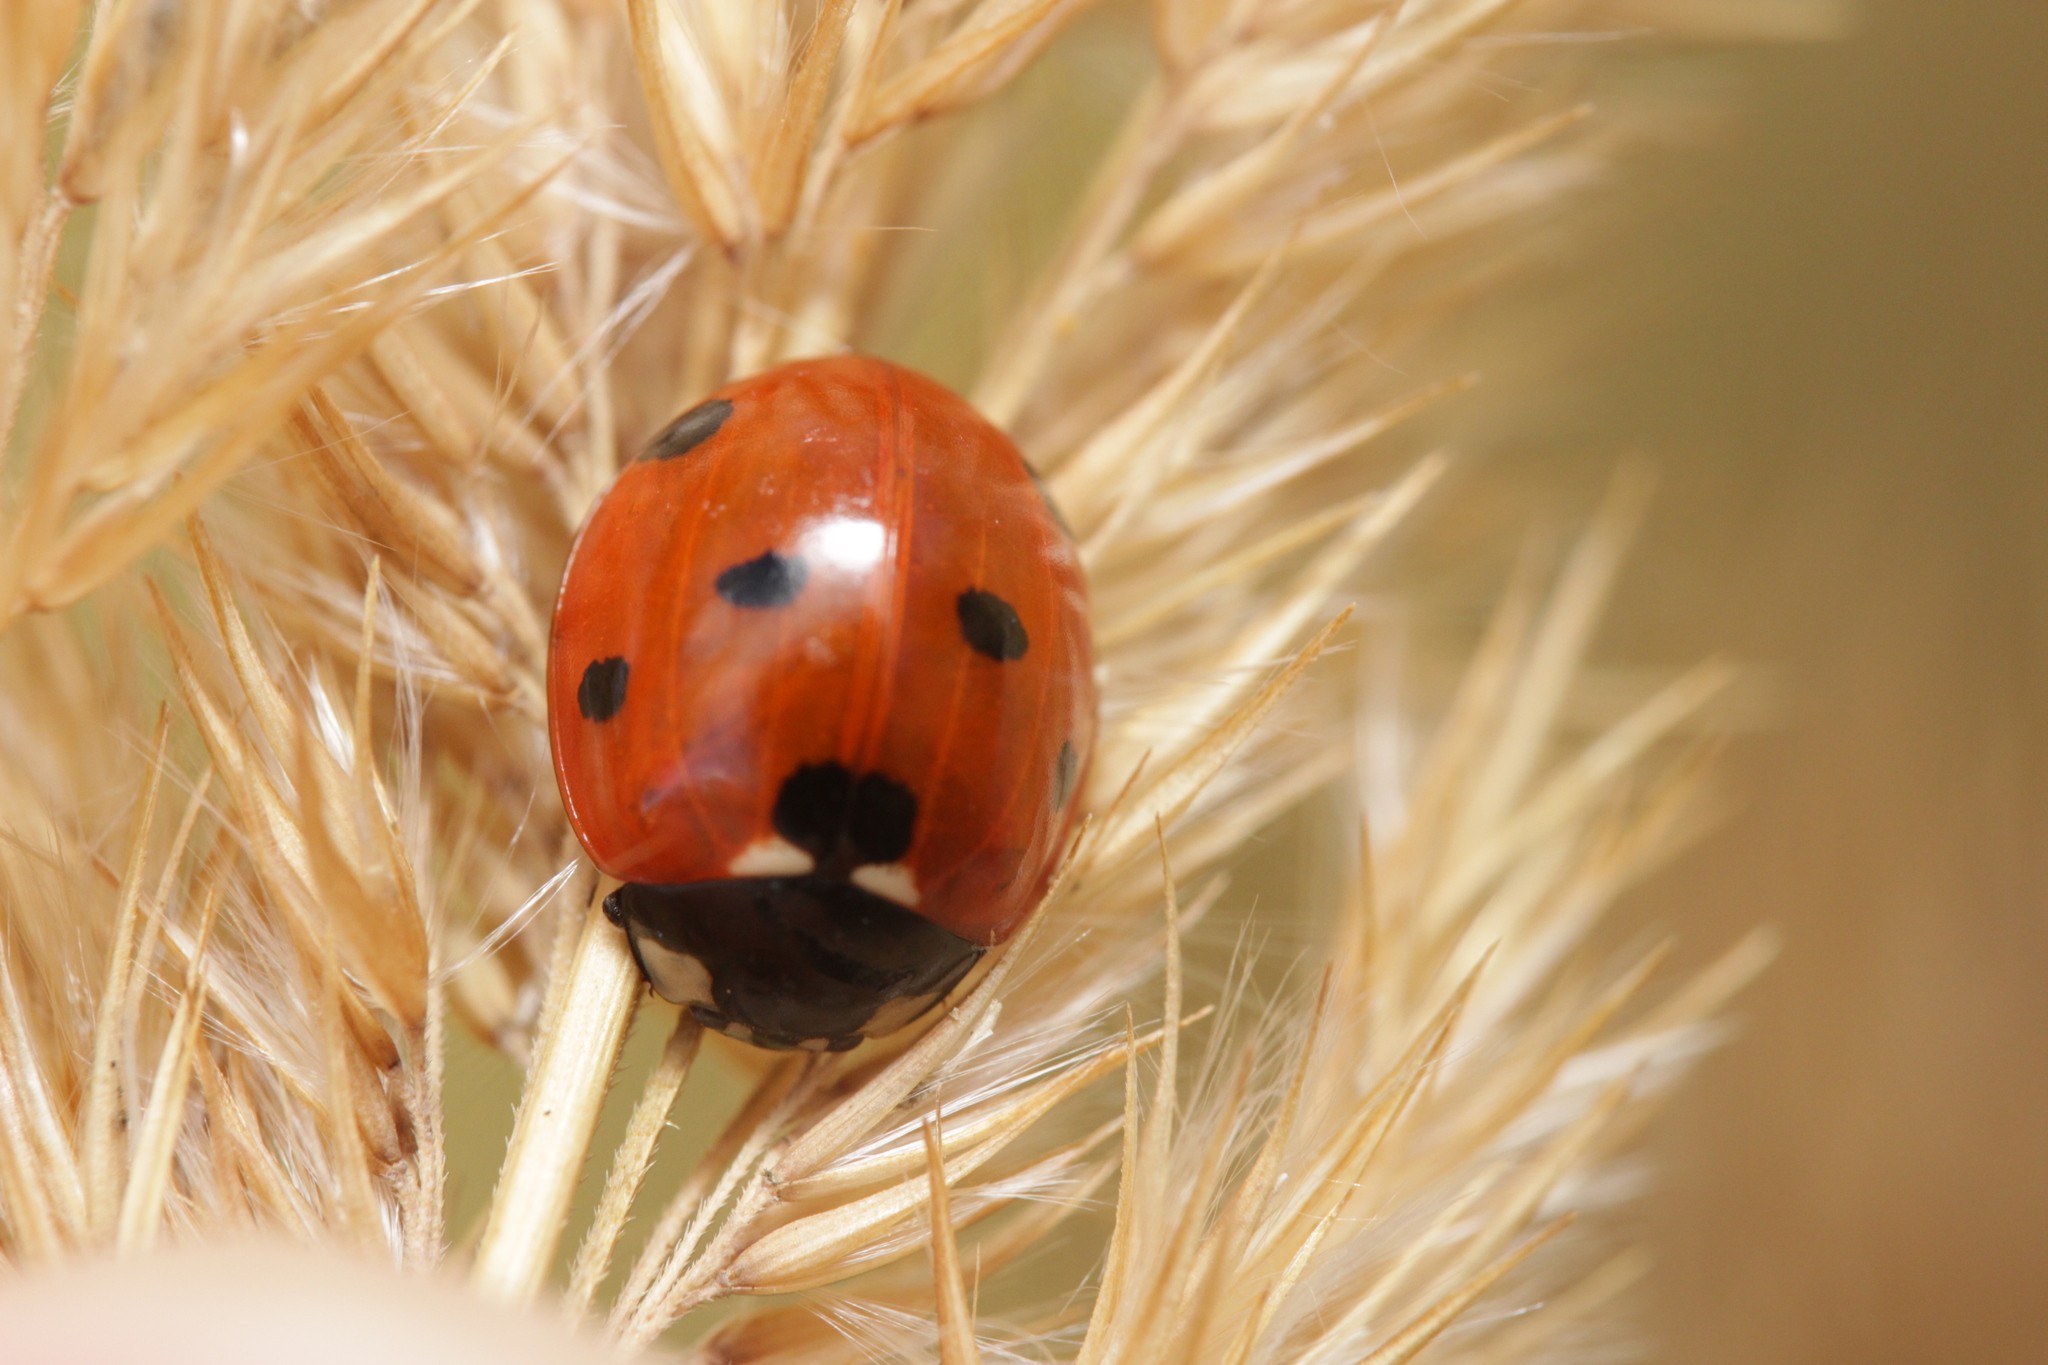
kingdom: Animalia
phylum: Arthropoda
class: Insecta
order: Coleoptera
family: Coccinellidae
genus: Coccinella
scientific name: Coccinella septempunctata
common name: Sevenspotted lady beetle
